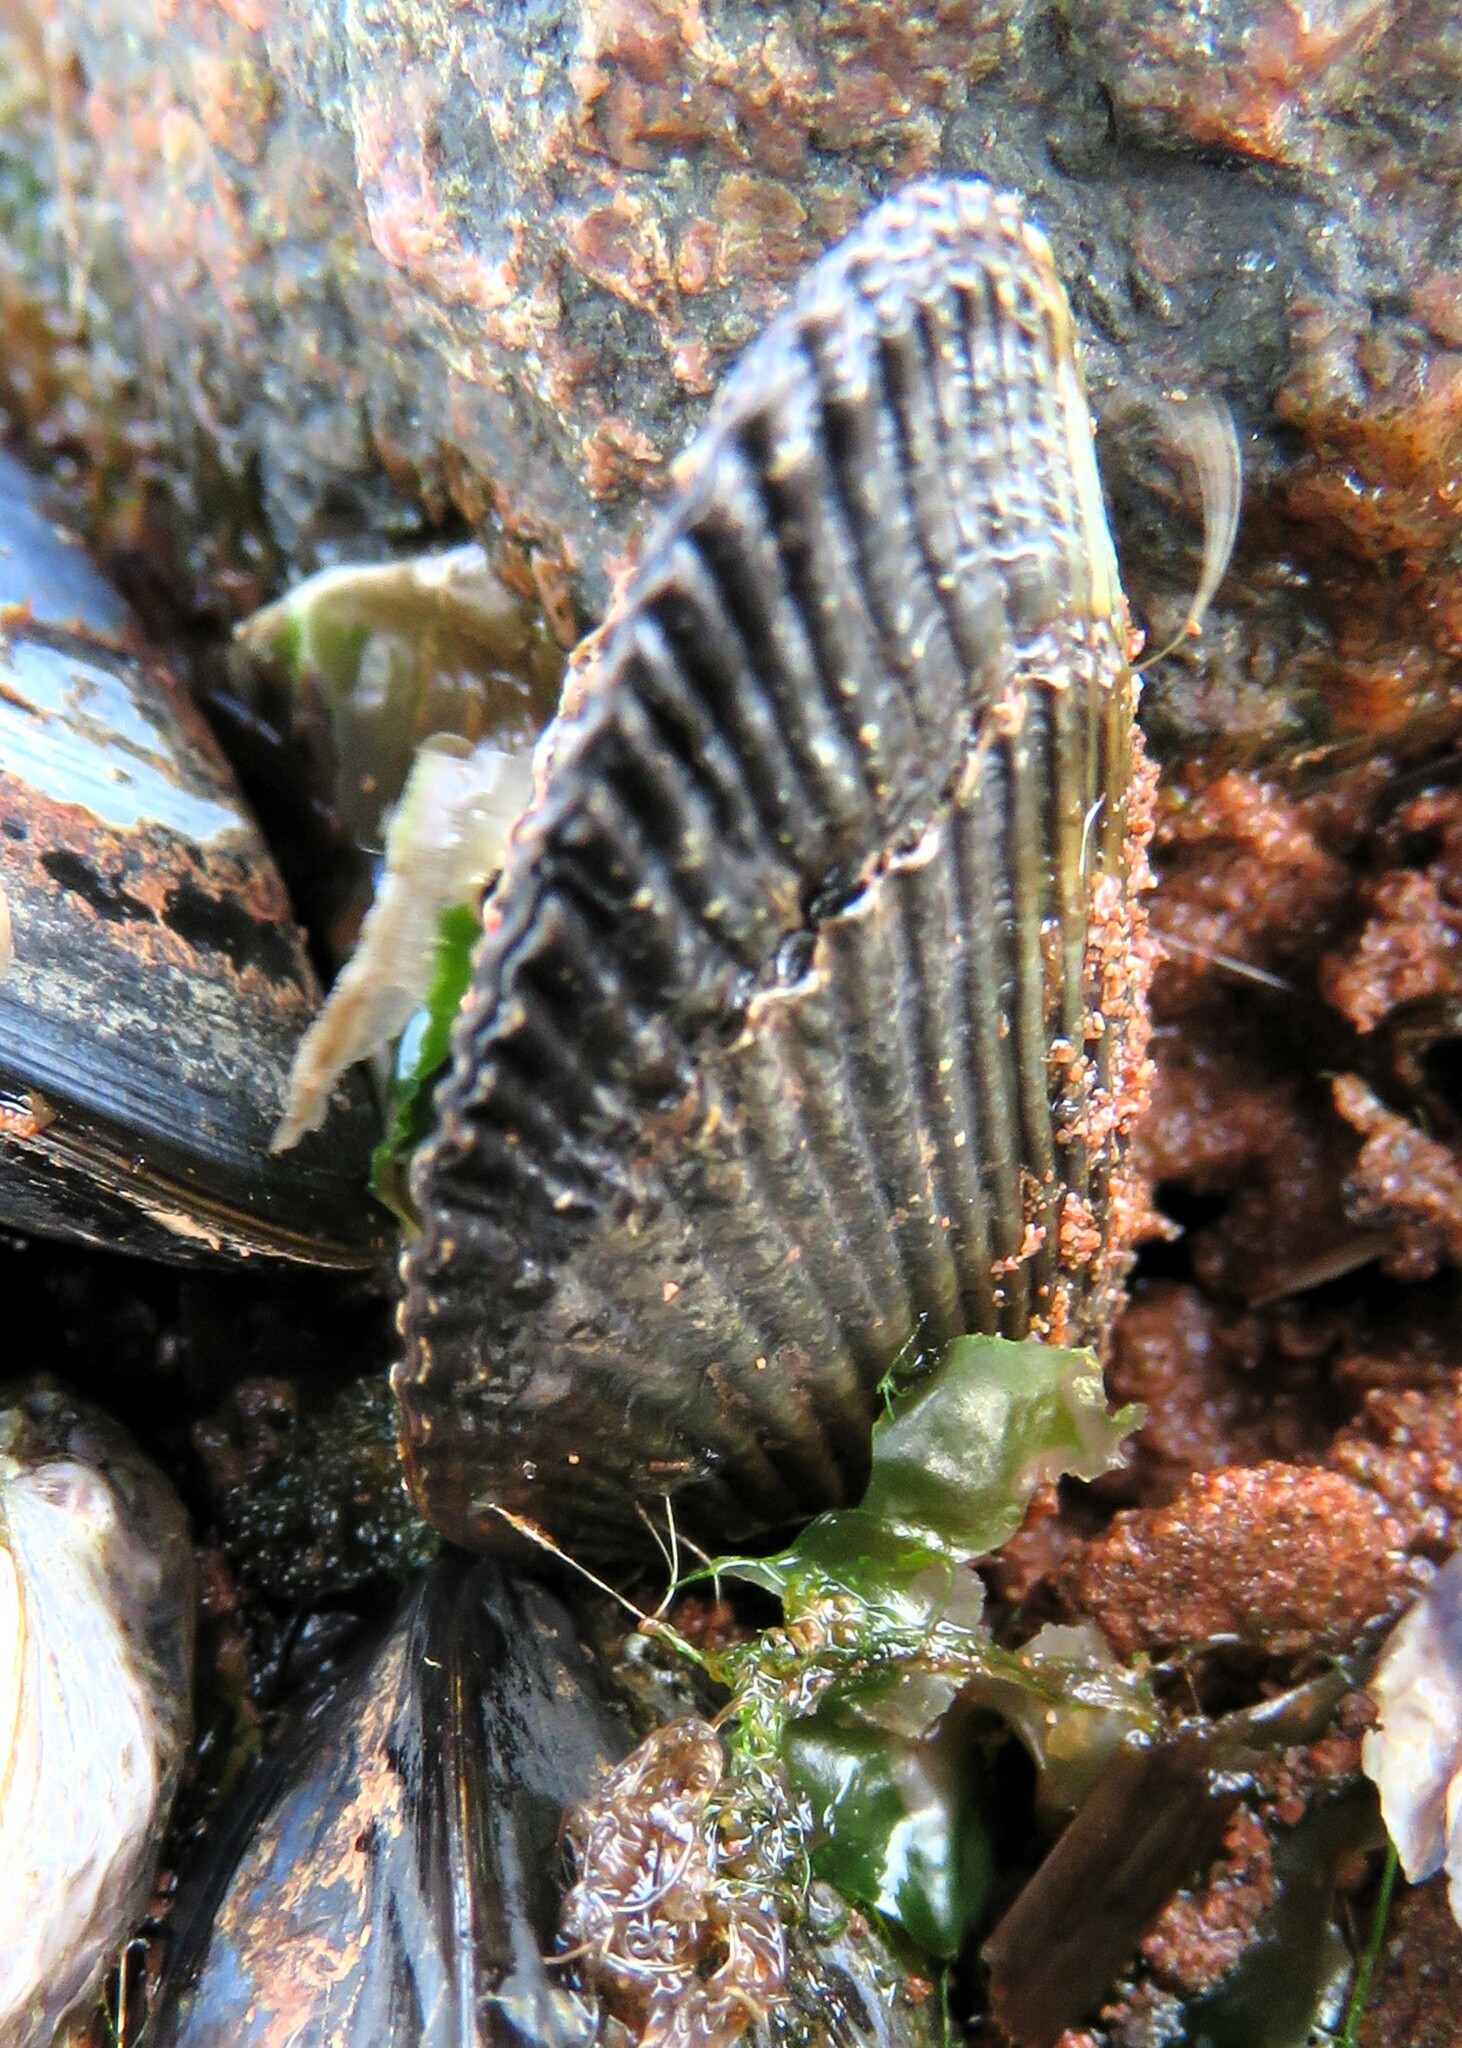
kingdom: Animalia
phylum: Mollusca
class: Bivalvia
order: Mytilida
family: Mytilidae
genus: Geukensia
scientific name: Geukensia demissa
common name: Ribbed mussel
